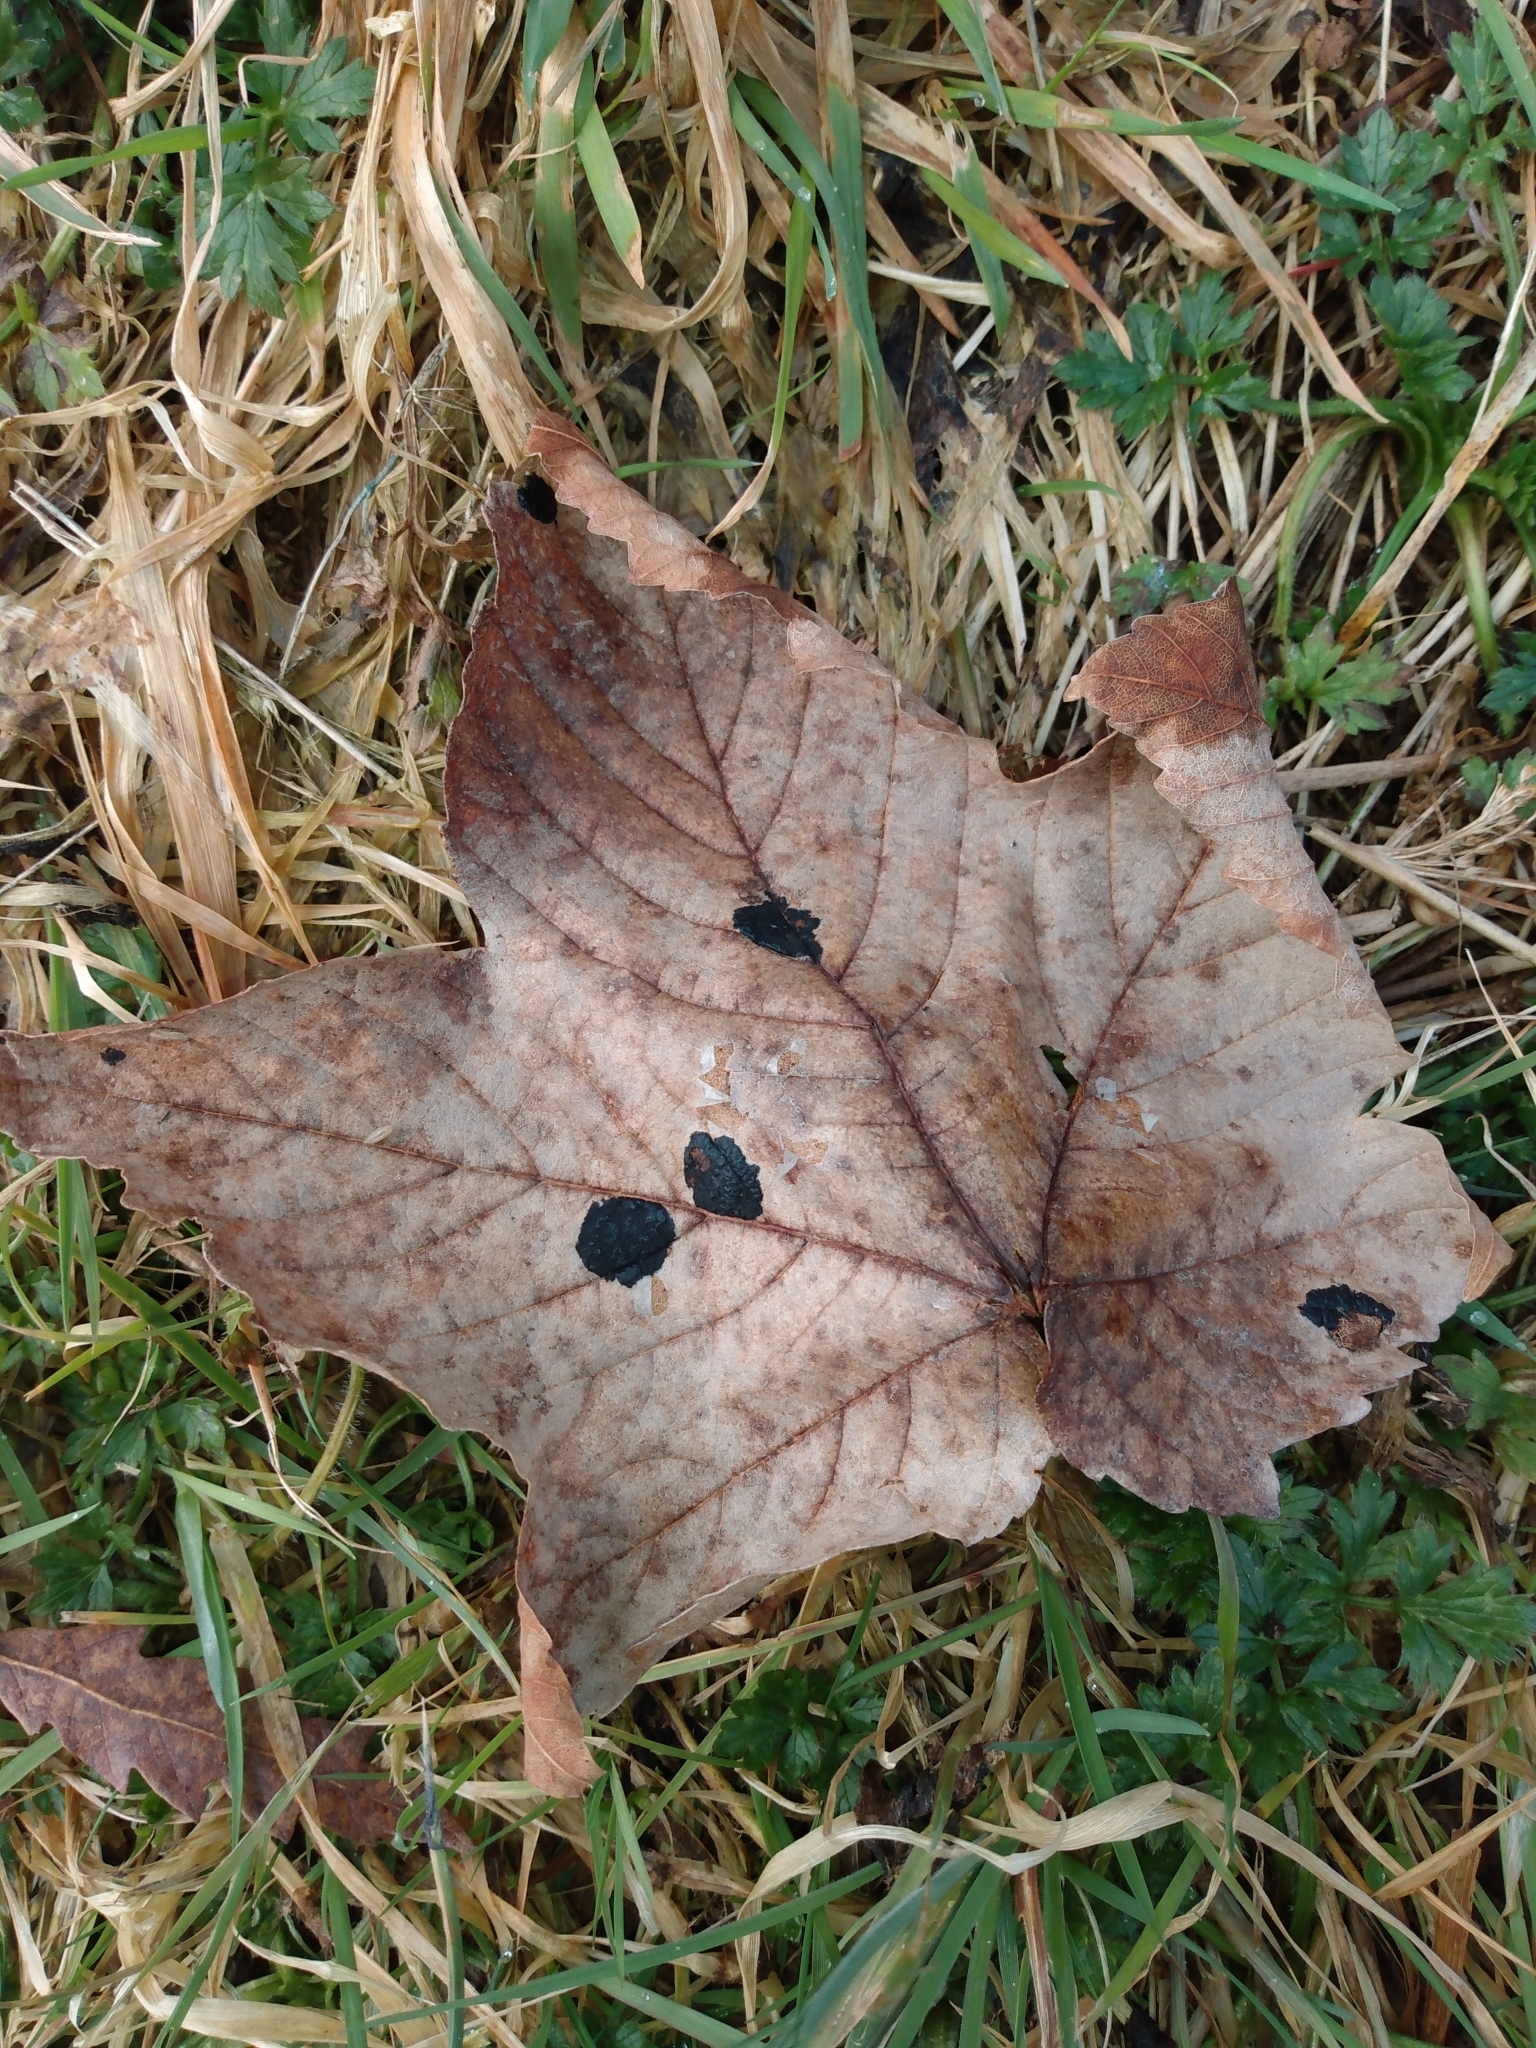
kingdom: Fungi
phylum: Ascomycota
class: Leotiomycetes
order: Rhytismatales
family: Rhytismataceae
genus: Rhytisma
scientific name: Rhytisma acerinum
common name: European tar spot
